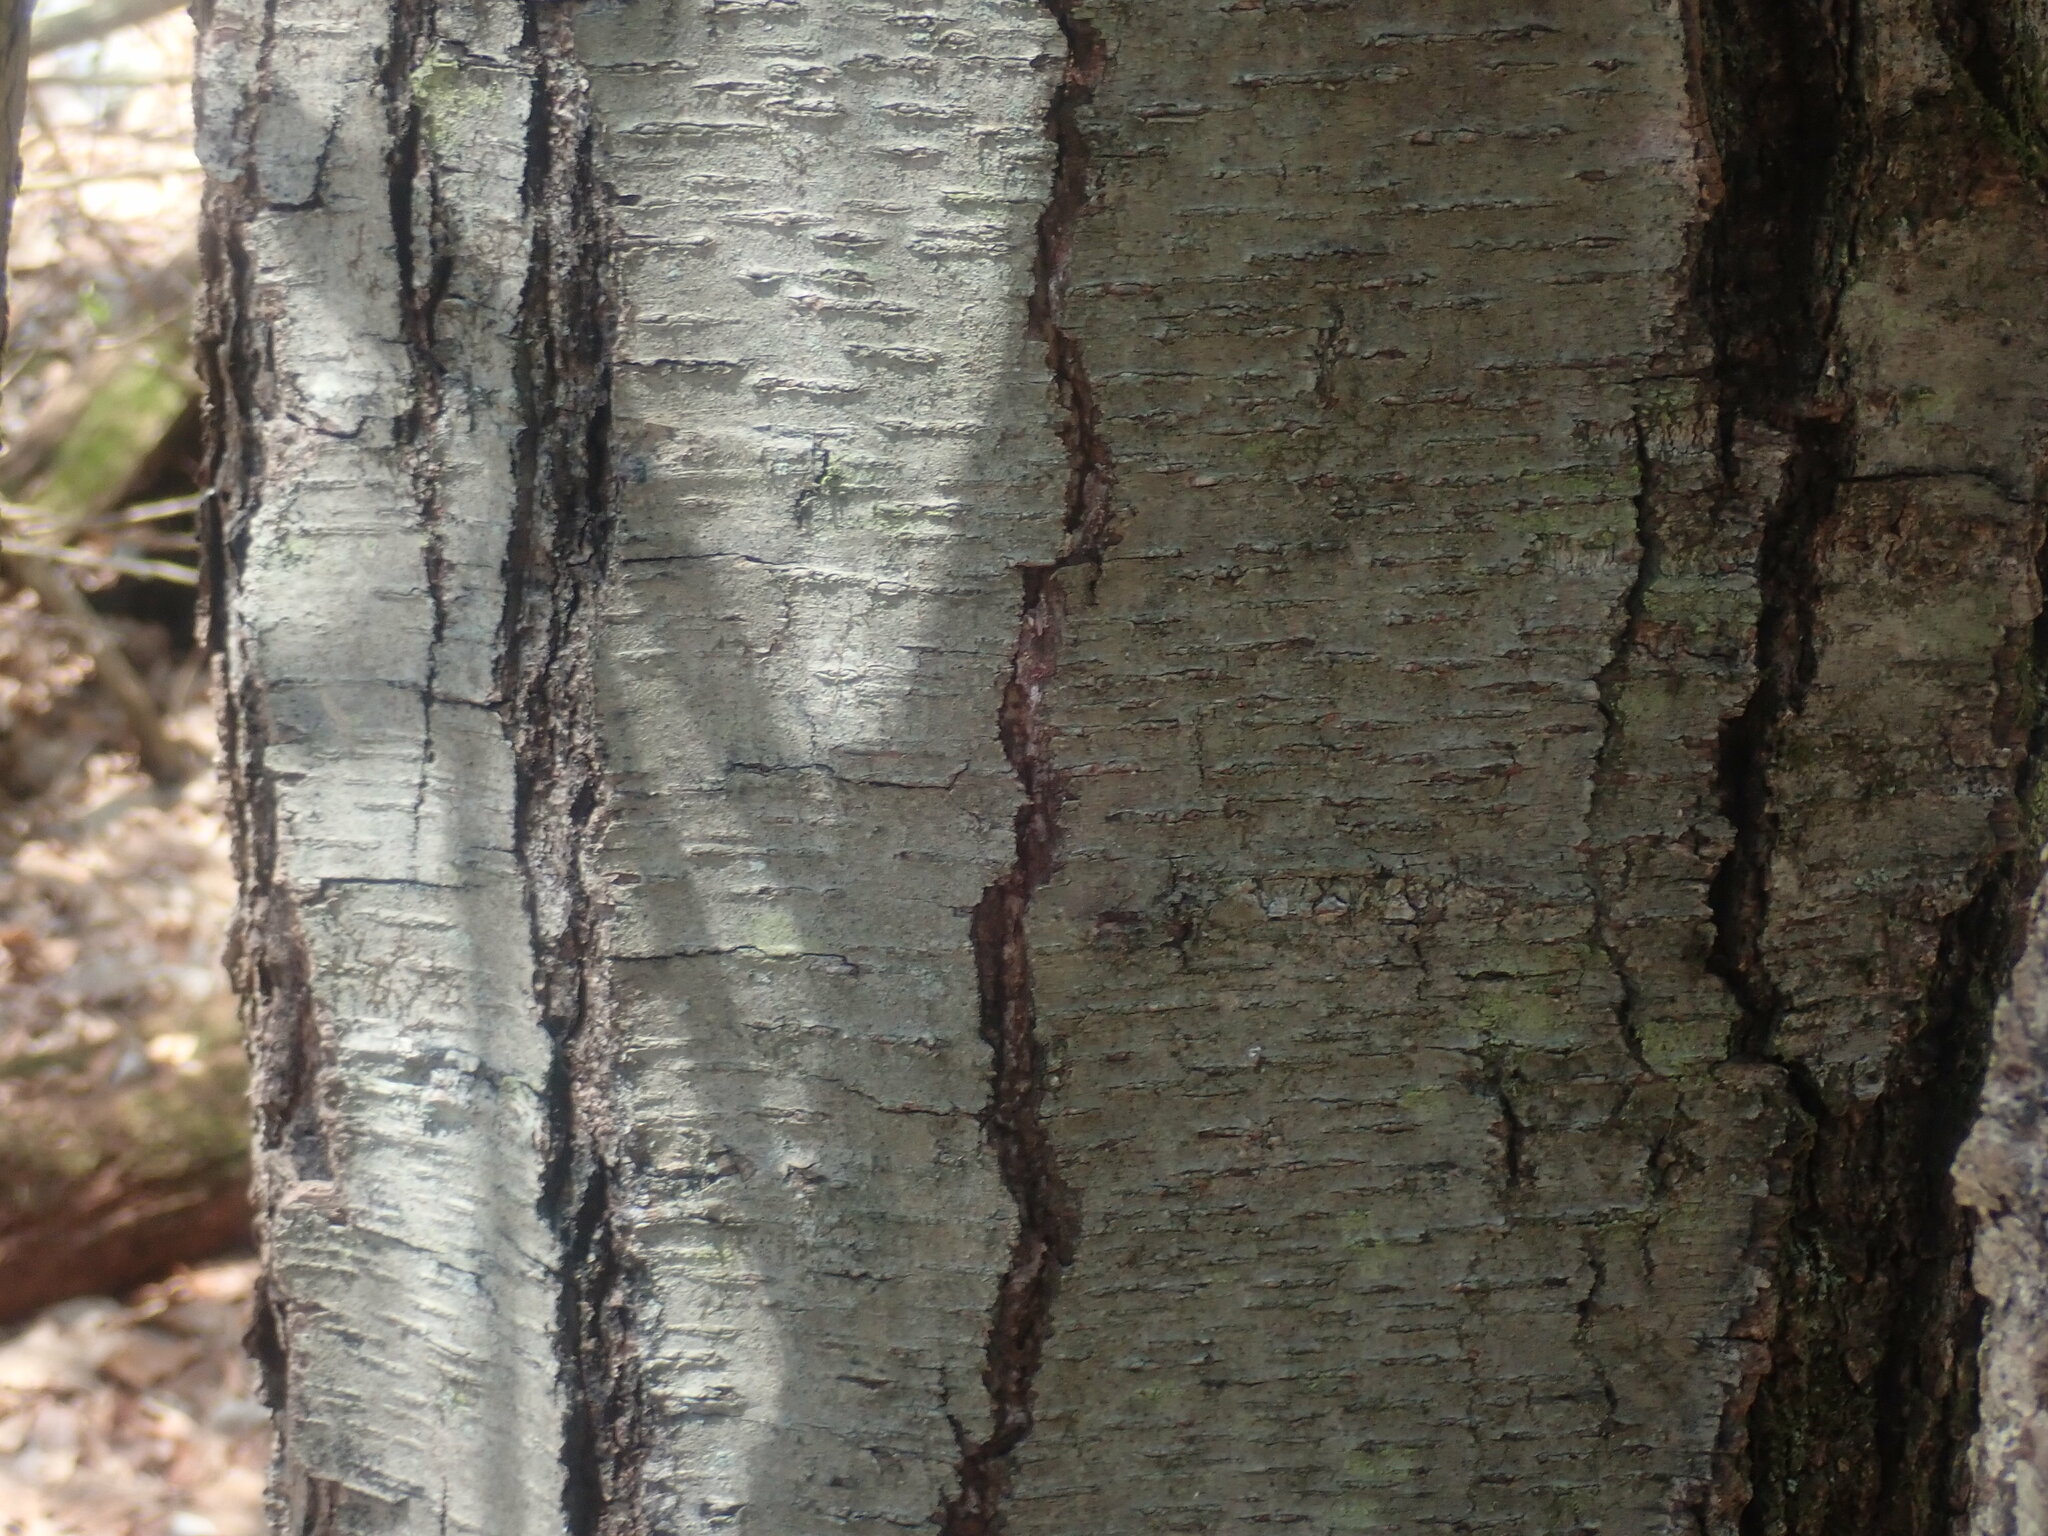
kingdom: Plantae
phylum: Tracheophyta
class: Magnoliopsida
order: Fagales
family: Betulaceae
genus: Betula
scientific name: Betula lenta
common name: Black birch
